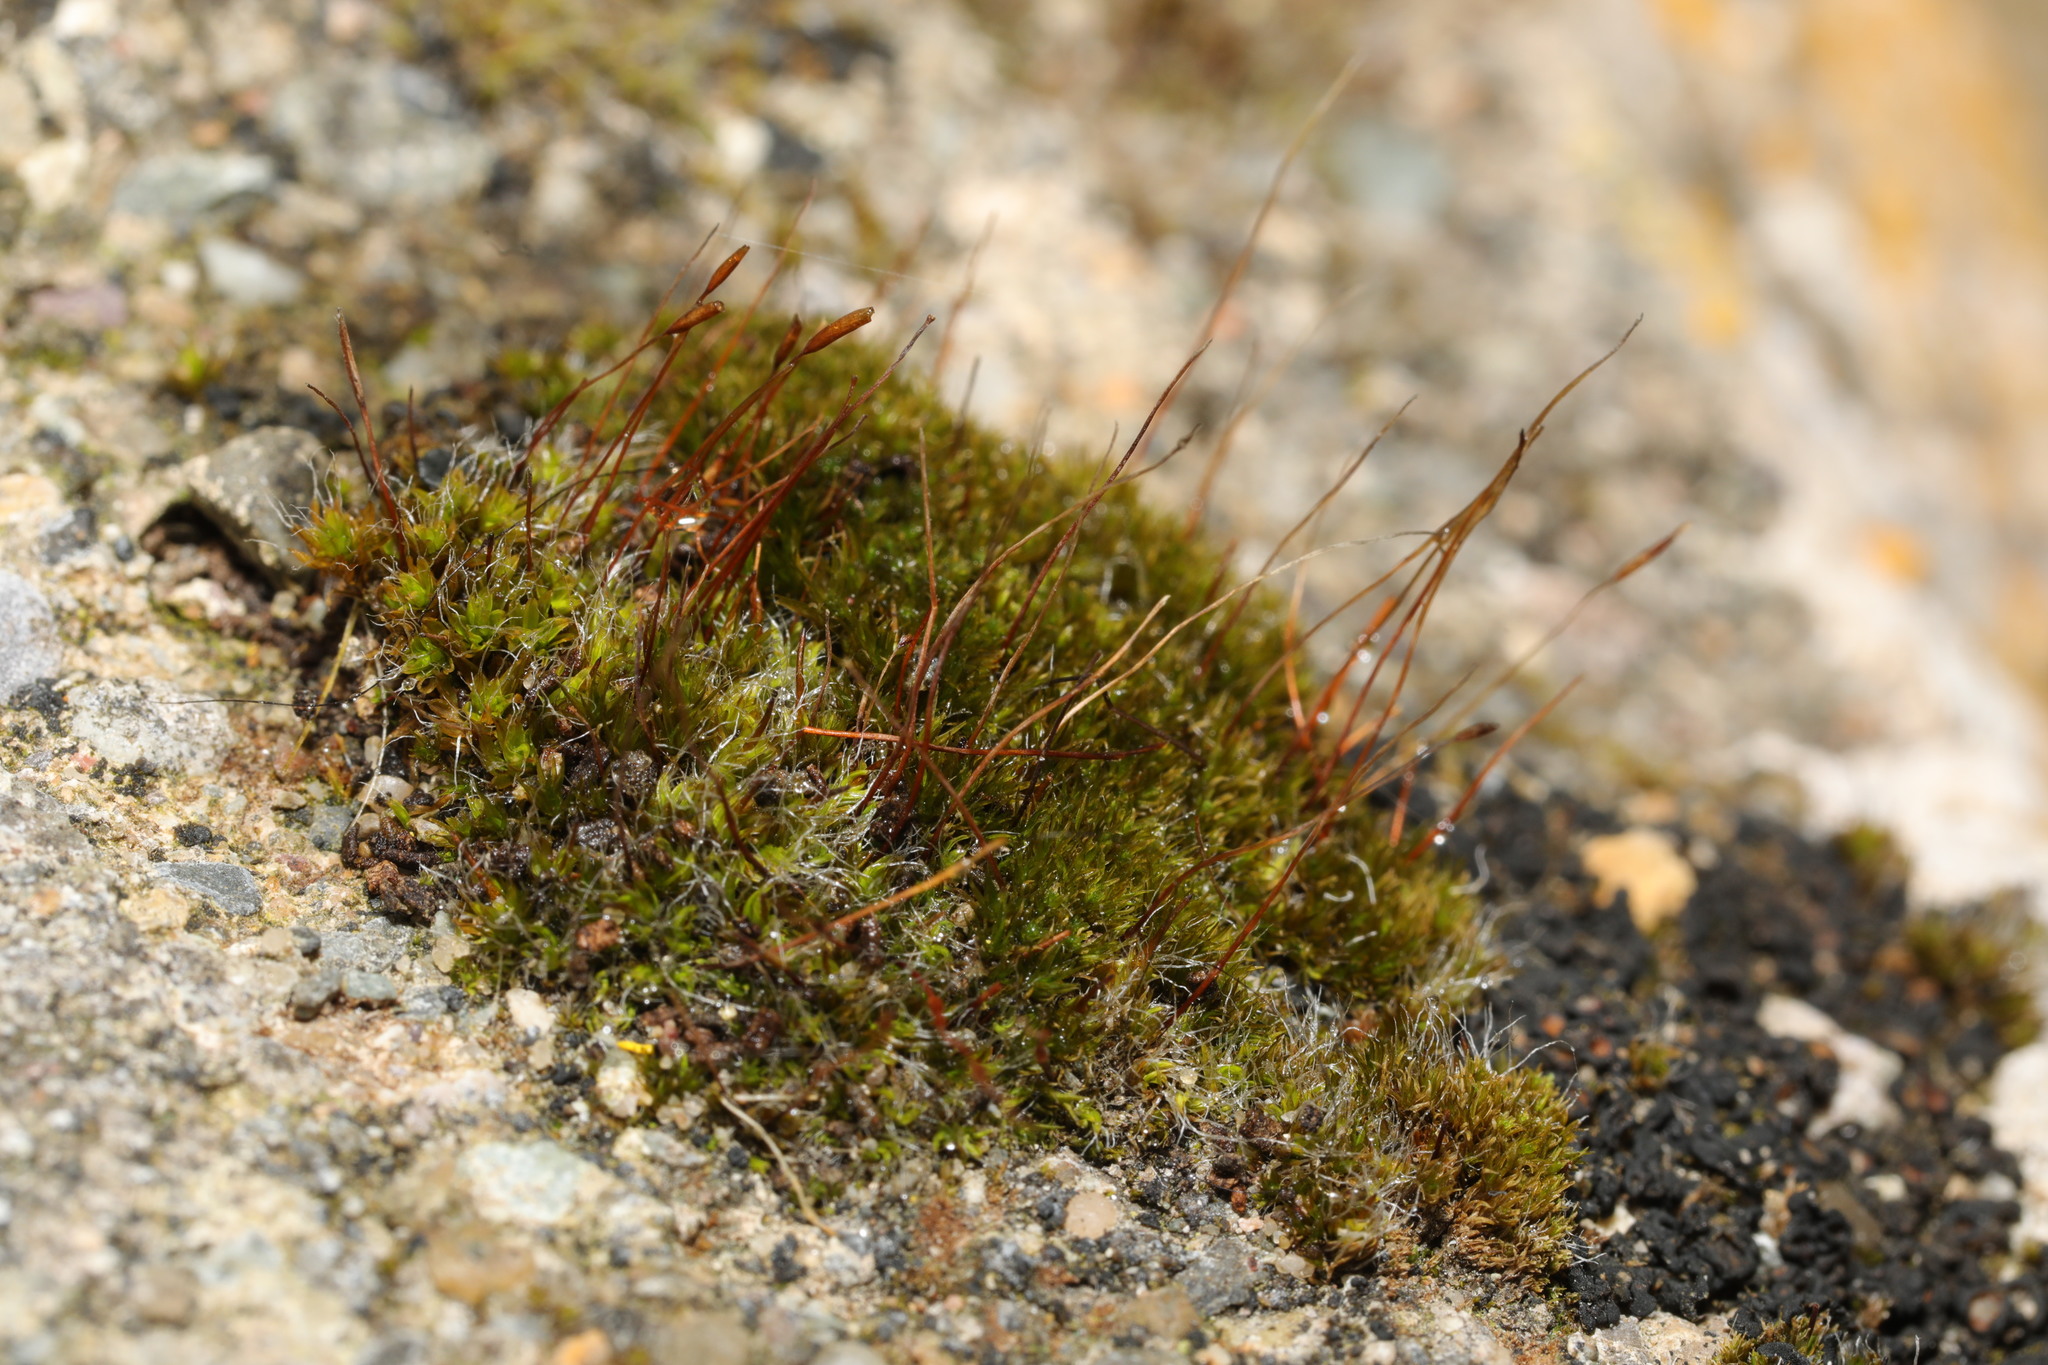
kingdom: Plantae
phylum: Bryophyta
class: Bryopsida
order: Pottiales
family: Pottiaceae
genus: Tortula
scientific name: Tortula muralis
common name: Wall screw-moss
